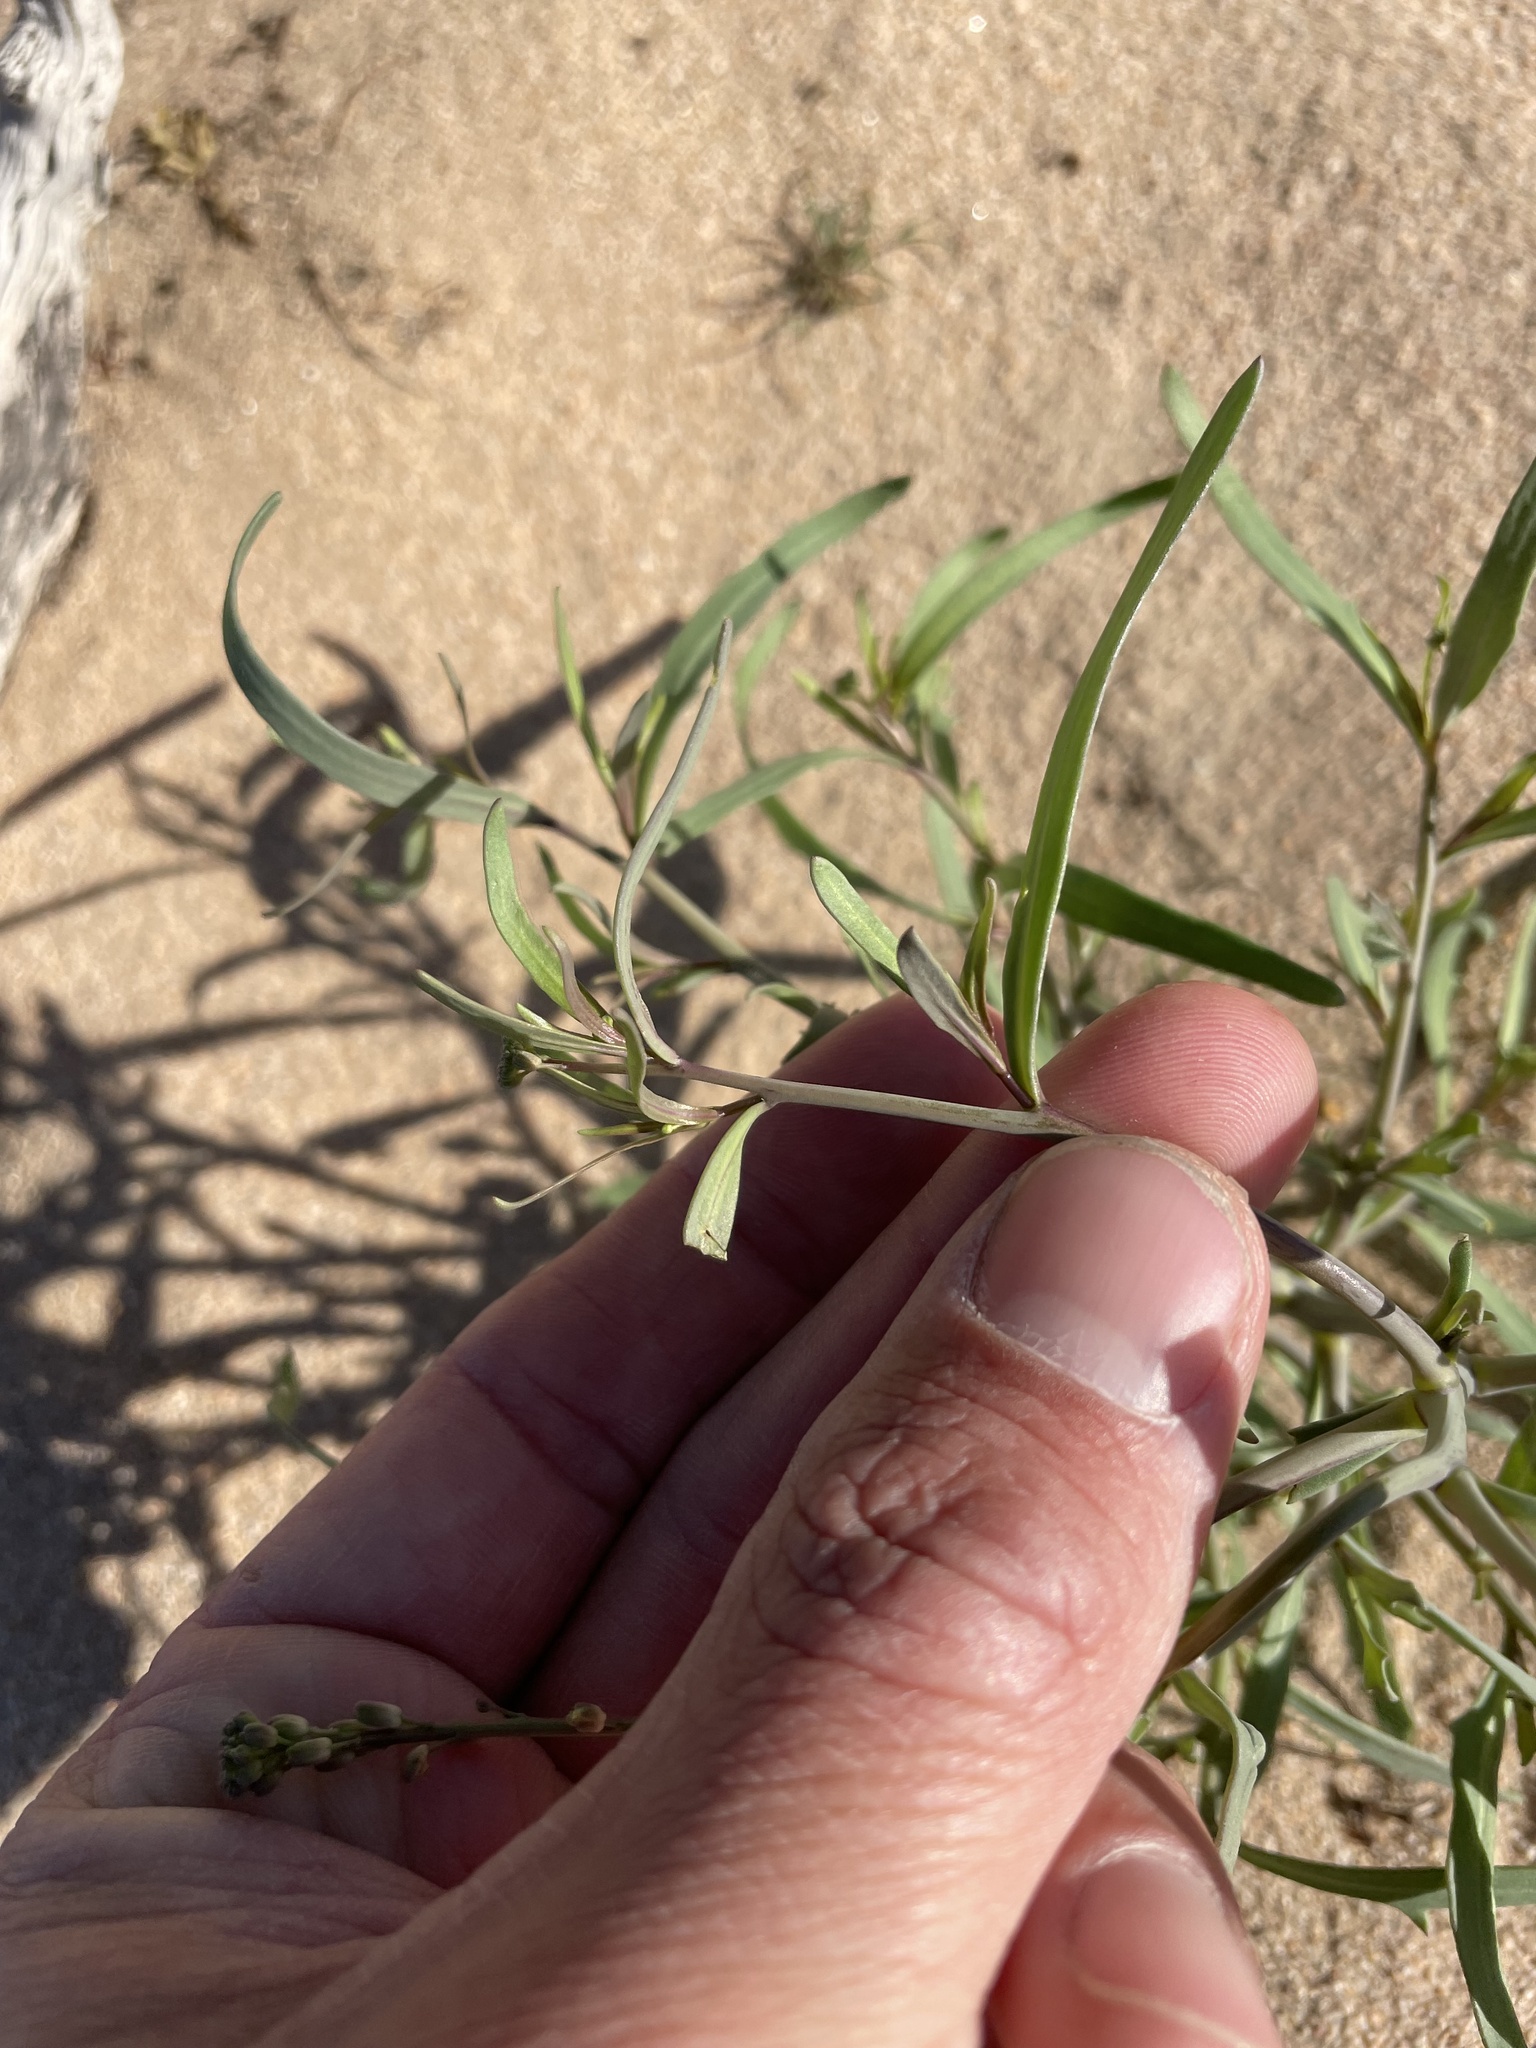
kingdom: Plantae
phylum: Tracheophyta
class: Magnoliopsida
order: Brassicales
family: Brassicaceae
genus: Streptanthus
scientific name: Streptanthus longirostris
